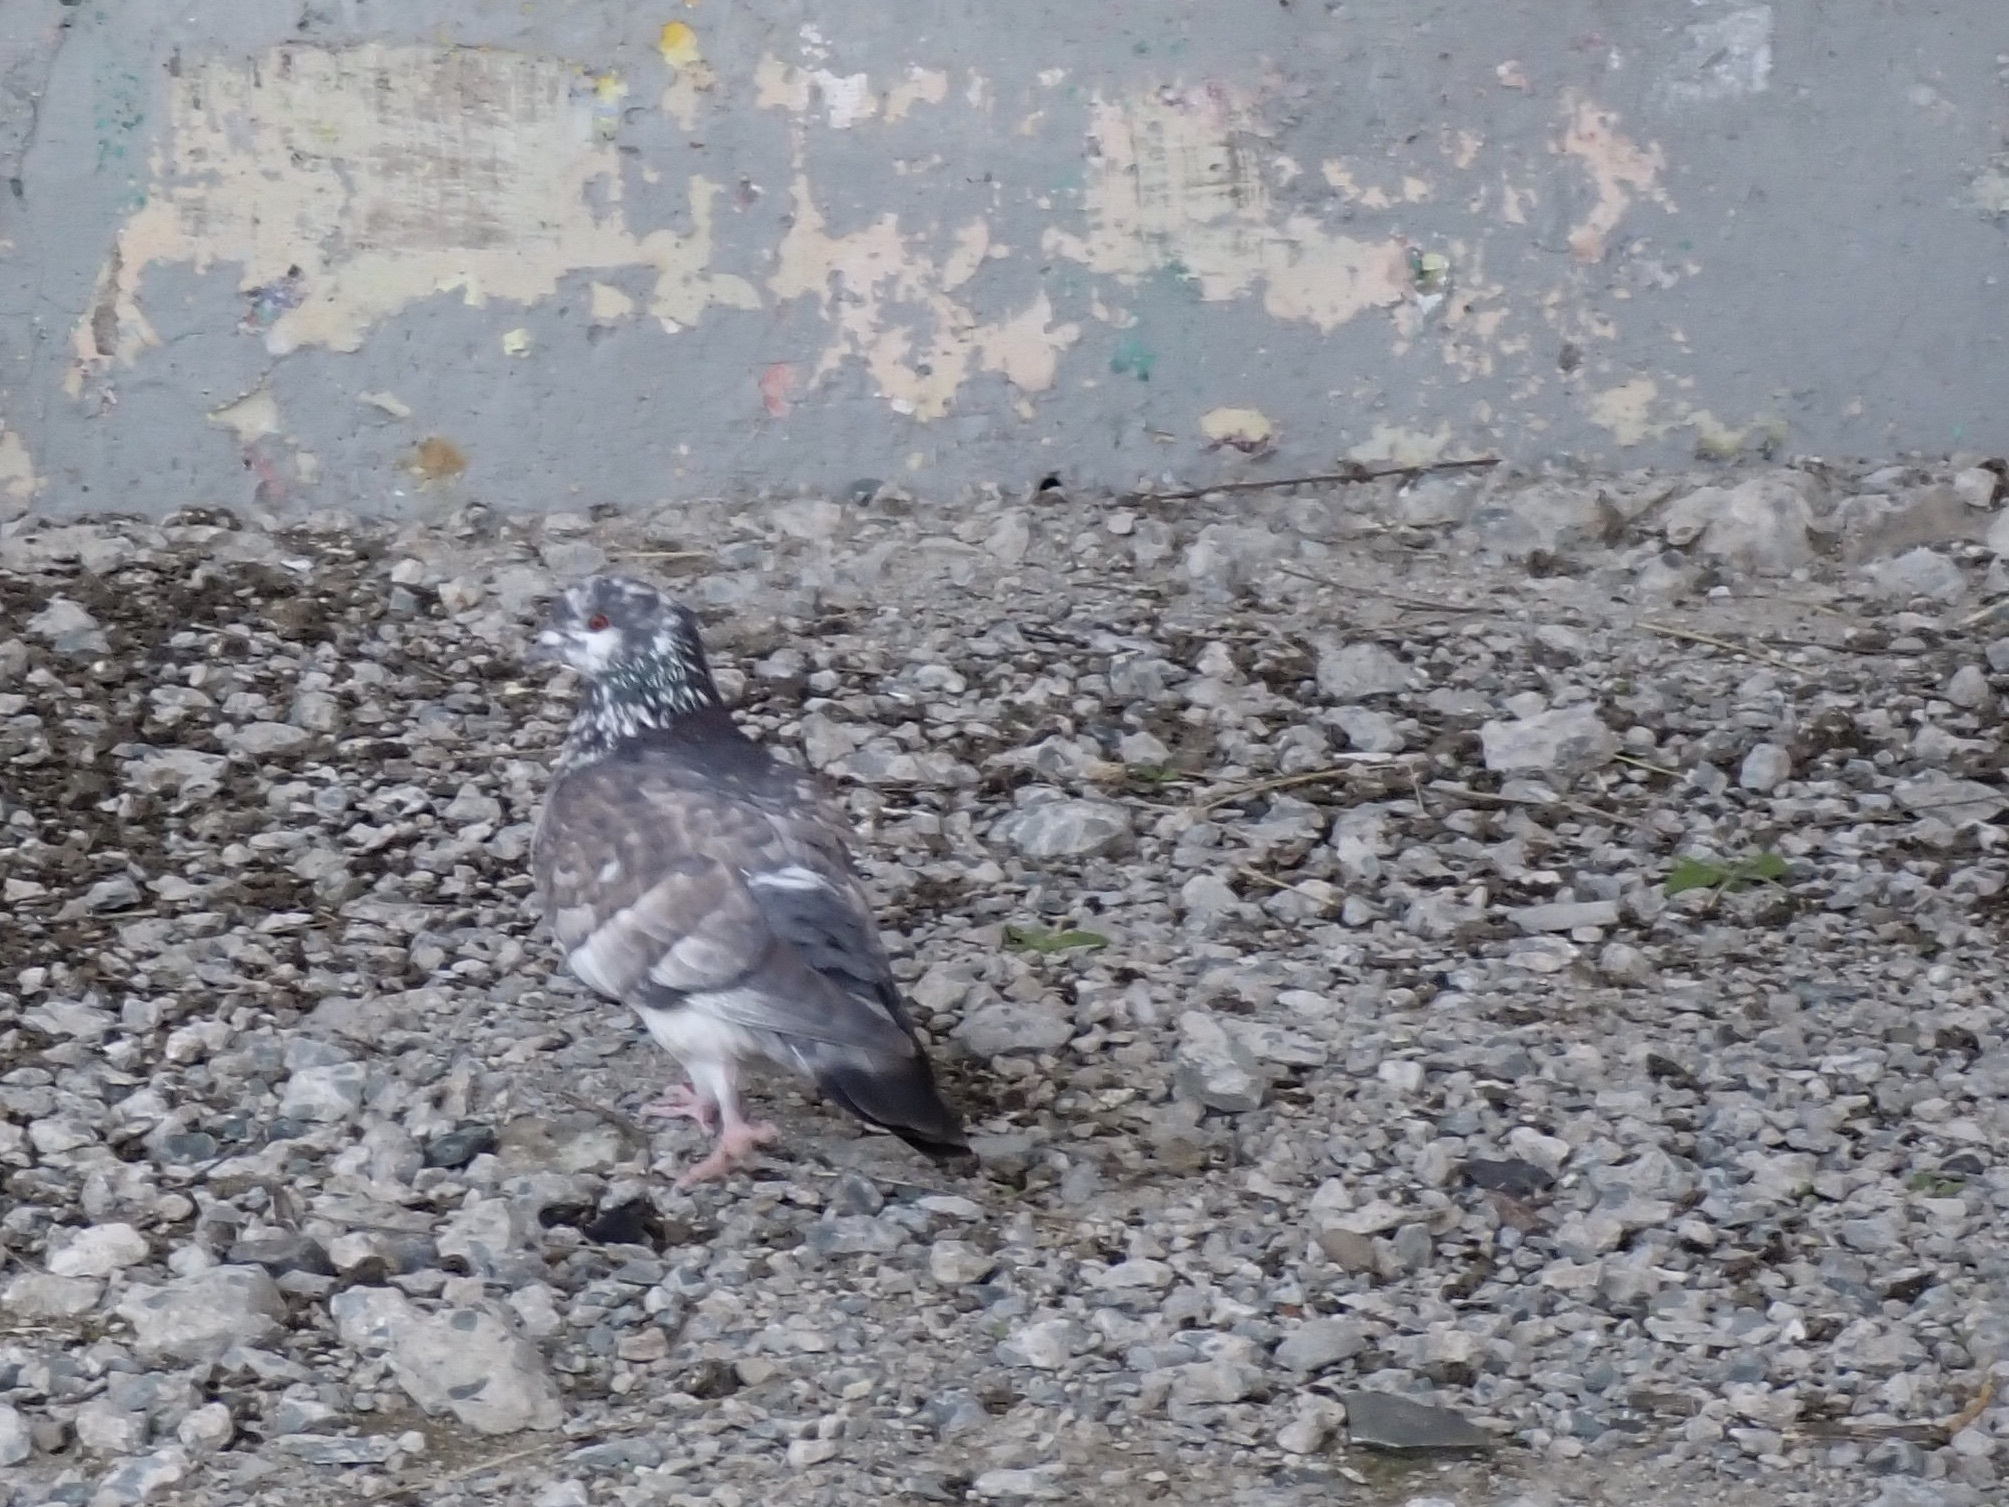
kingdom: Animalia
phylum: Chordata
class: Aves
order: Columbiformes
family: Columbidae
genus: Columba
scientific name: Columba livia
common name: Rock pigeon
